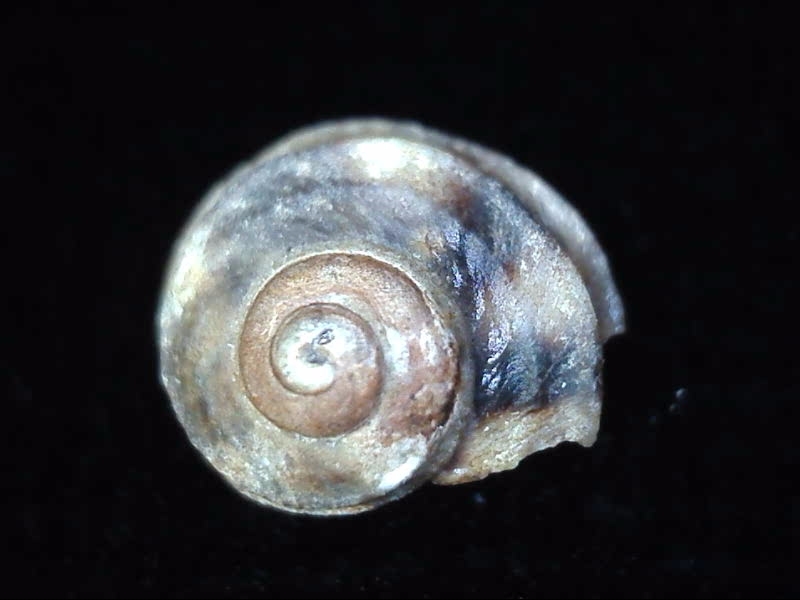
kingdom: Animalia
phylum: Mollusca
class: Gastropoda
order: Littorinimorpha
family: Littorinidae
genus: Risellopsis
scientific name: Risellopsis varia
